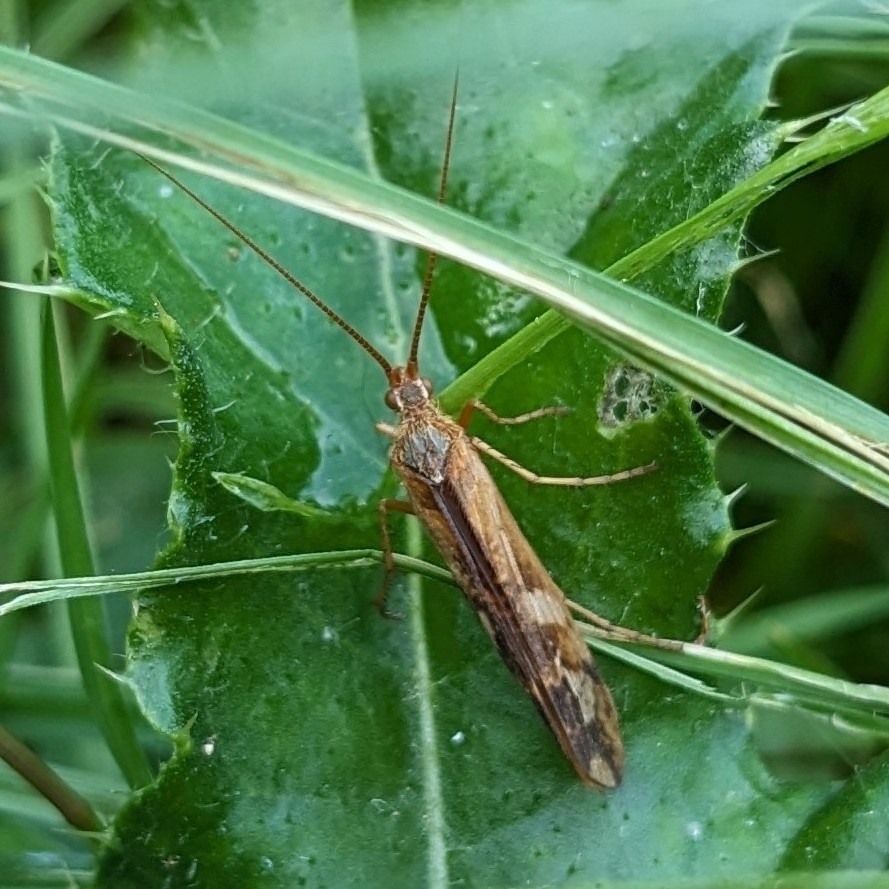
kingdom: Animalia
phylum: Arthropoda
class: Insecta
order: Trichoptera
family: Limnephilidae
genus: Limnephilus
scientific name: Limnephilus lunatus
